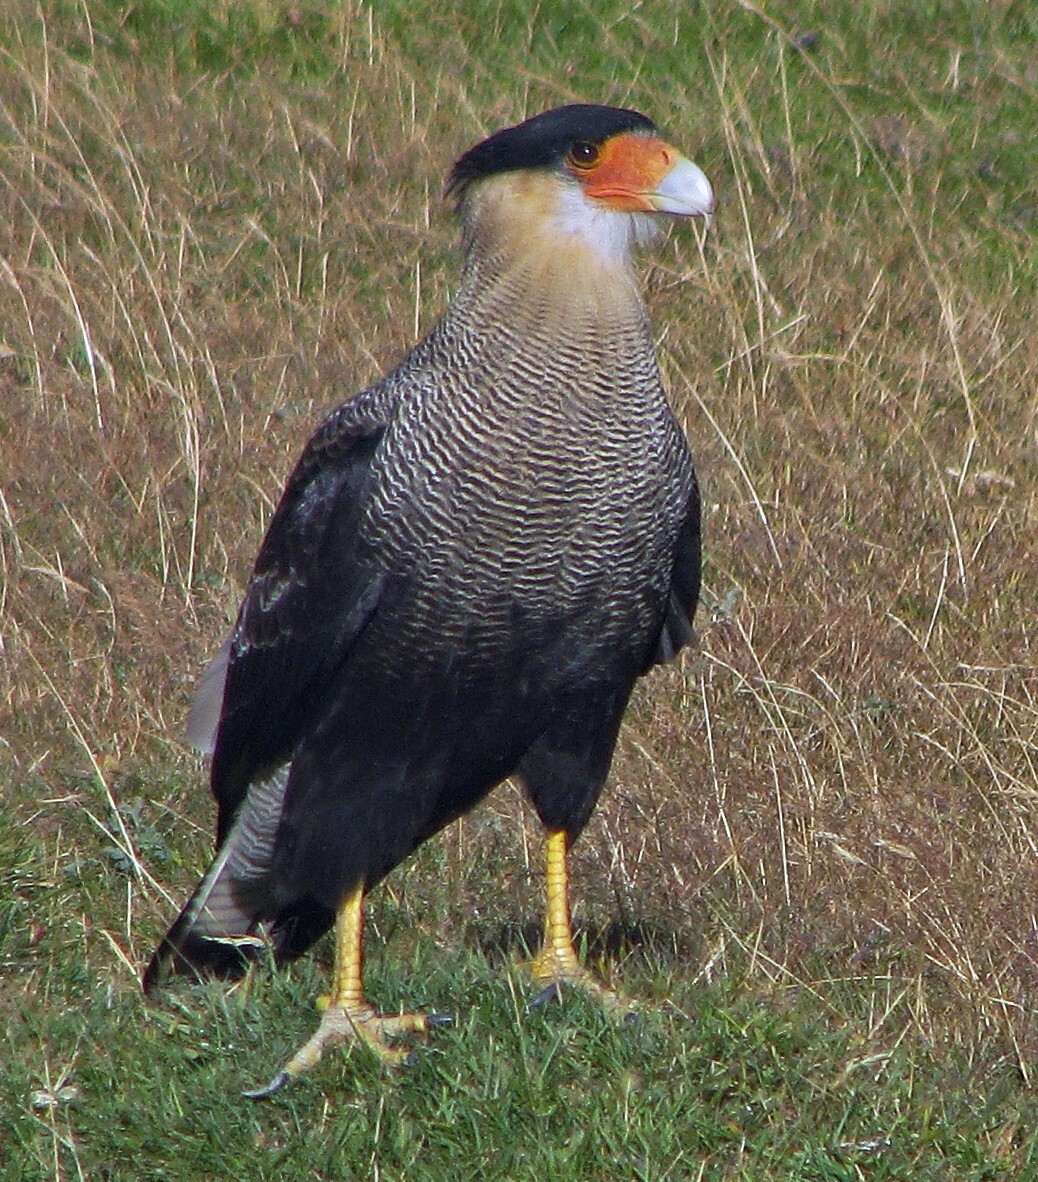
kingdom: Animalia
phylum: Chordata
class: Aves
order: Falconiformes
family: Falconidae
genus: Caracara
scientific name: Caracara plancus
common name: Southern caracara
